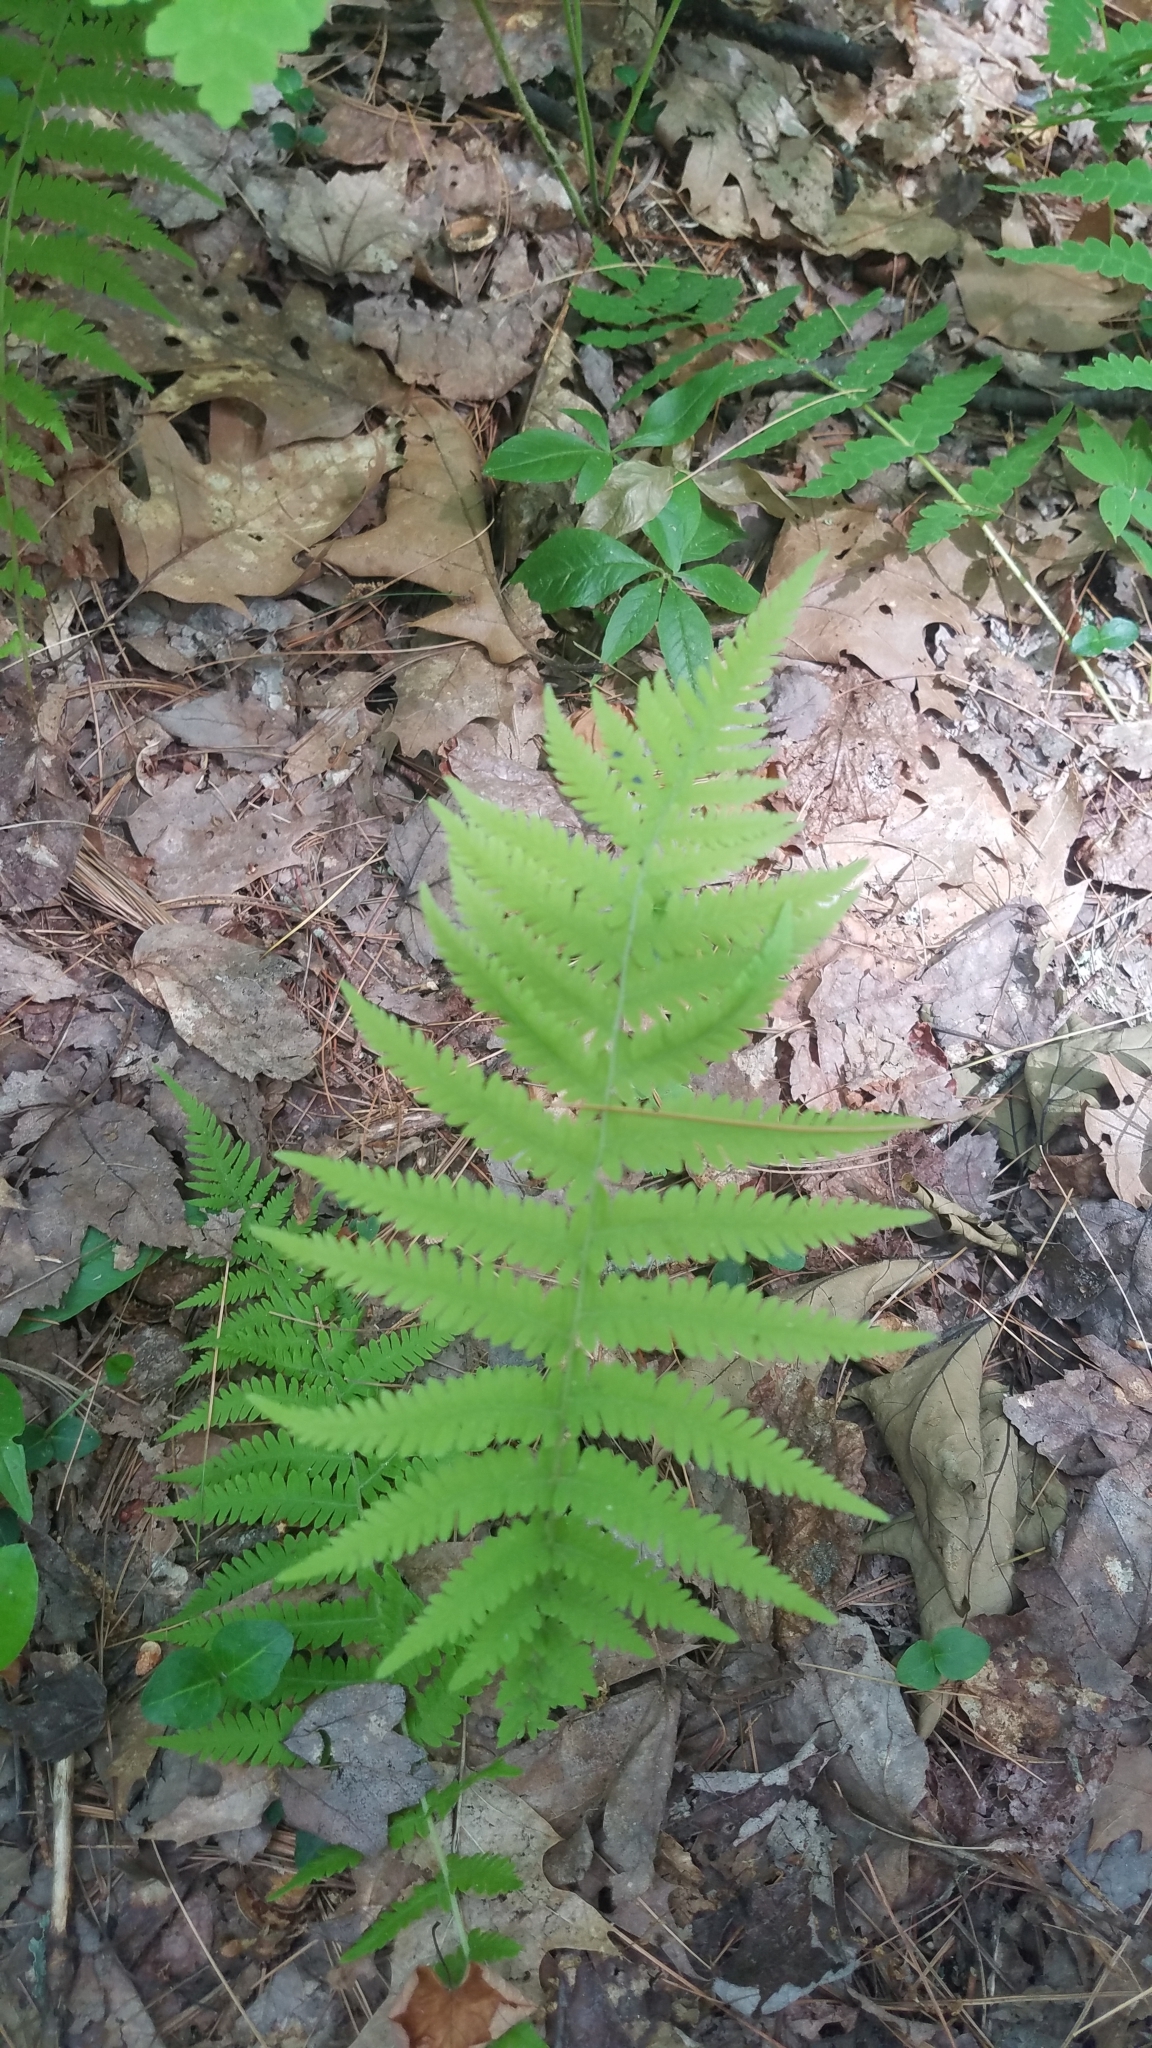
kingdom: Plantae
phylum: Tracheophyta
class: Polypodiopsida
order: Polypodiales
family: Thelypteridaceae
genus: Amauropelta
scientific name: Amauropelta noveboracensis
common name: New york fern
